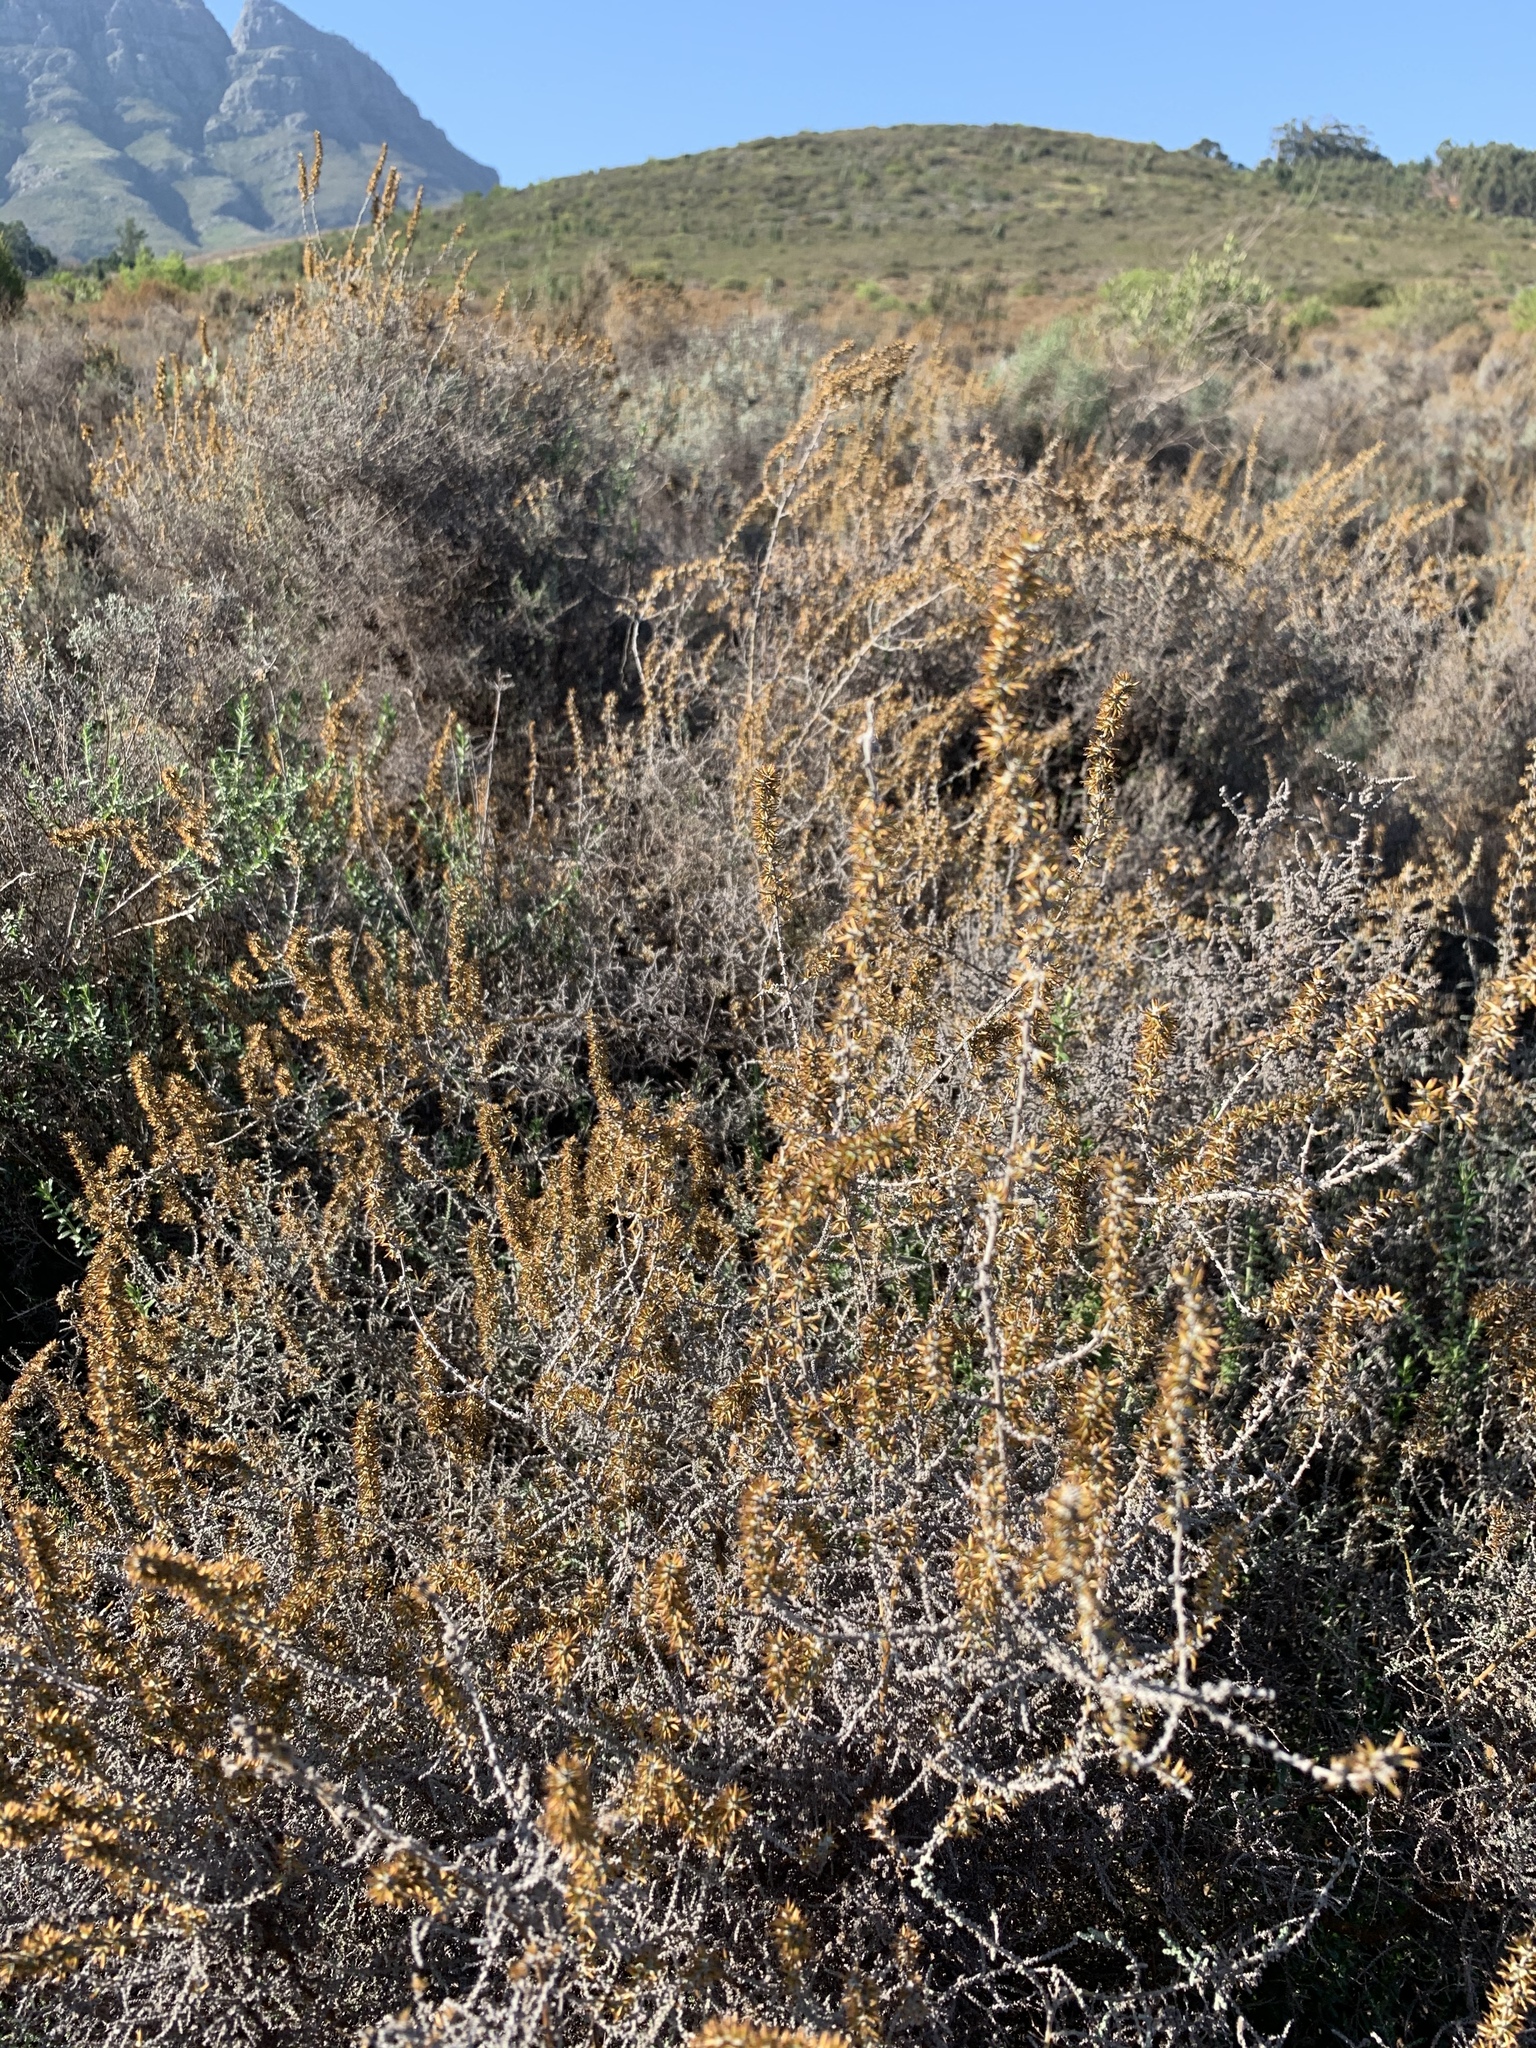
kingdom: Plantae
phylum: Tracheophyta
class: Magnoliopsida
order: Asterales
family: Asteraceae
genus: Seriphium
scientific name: Seriphium plumosum
